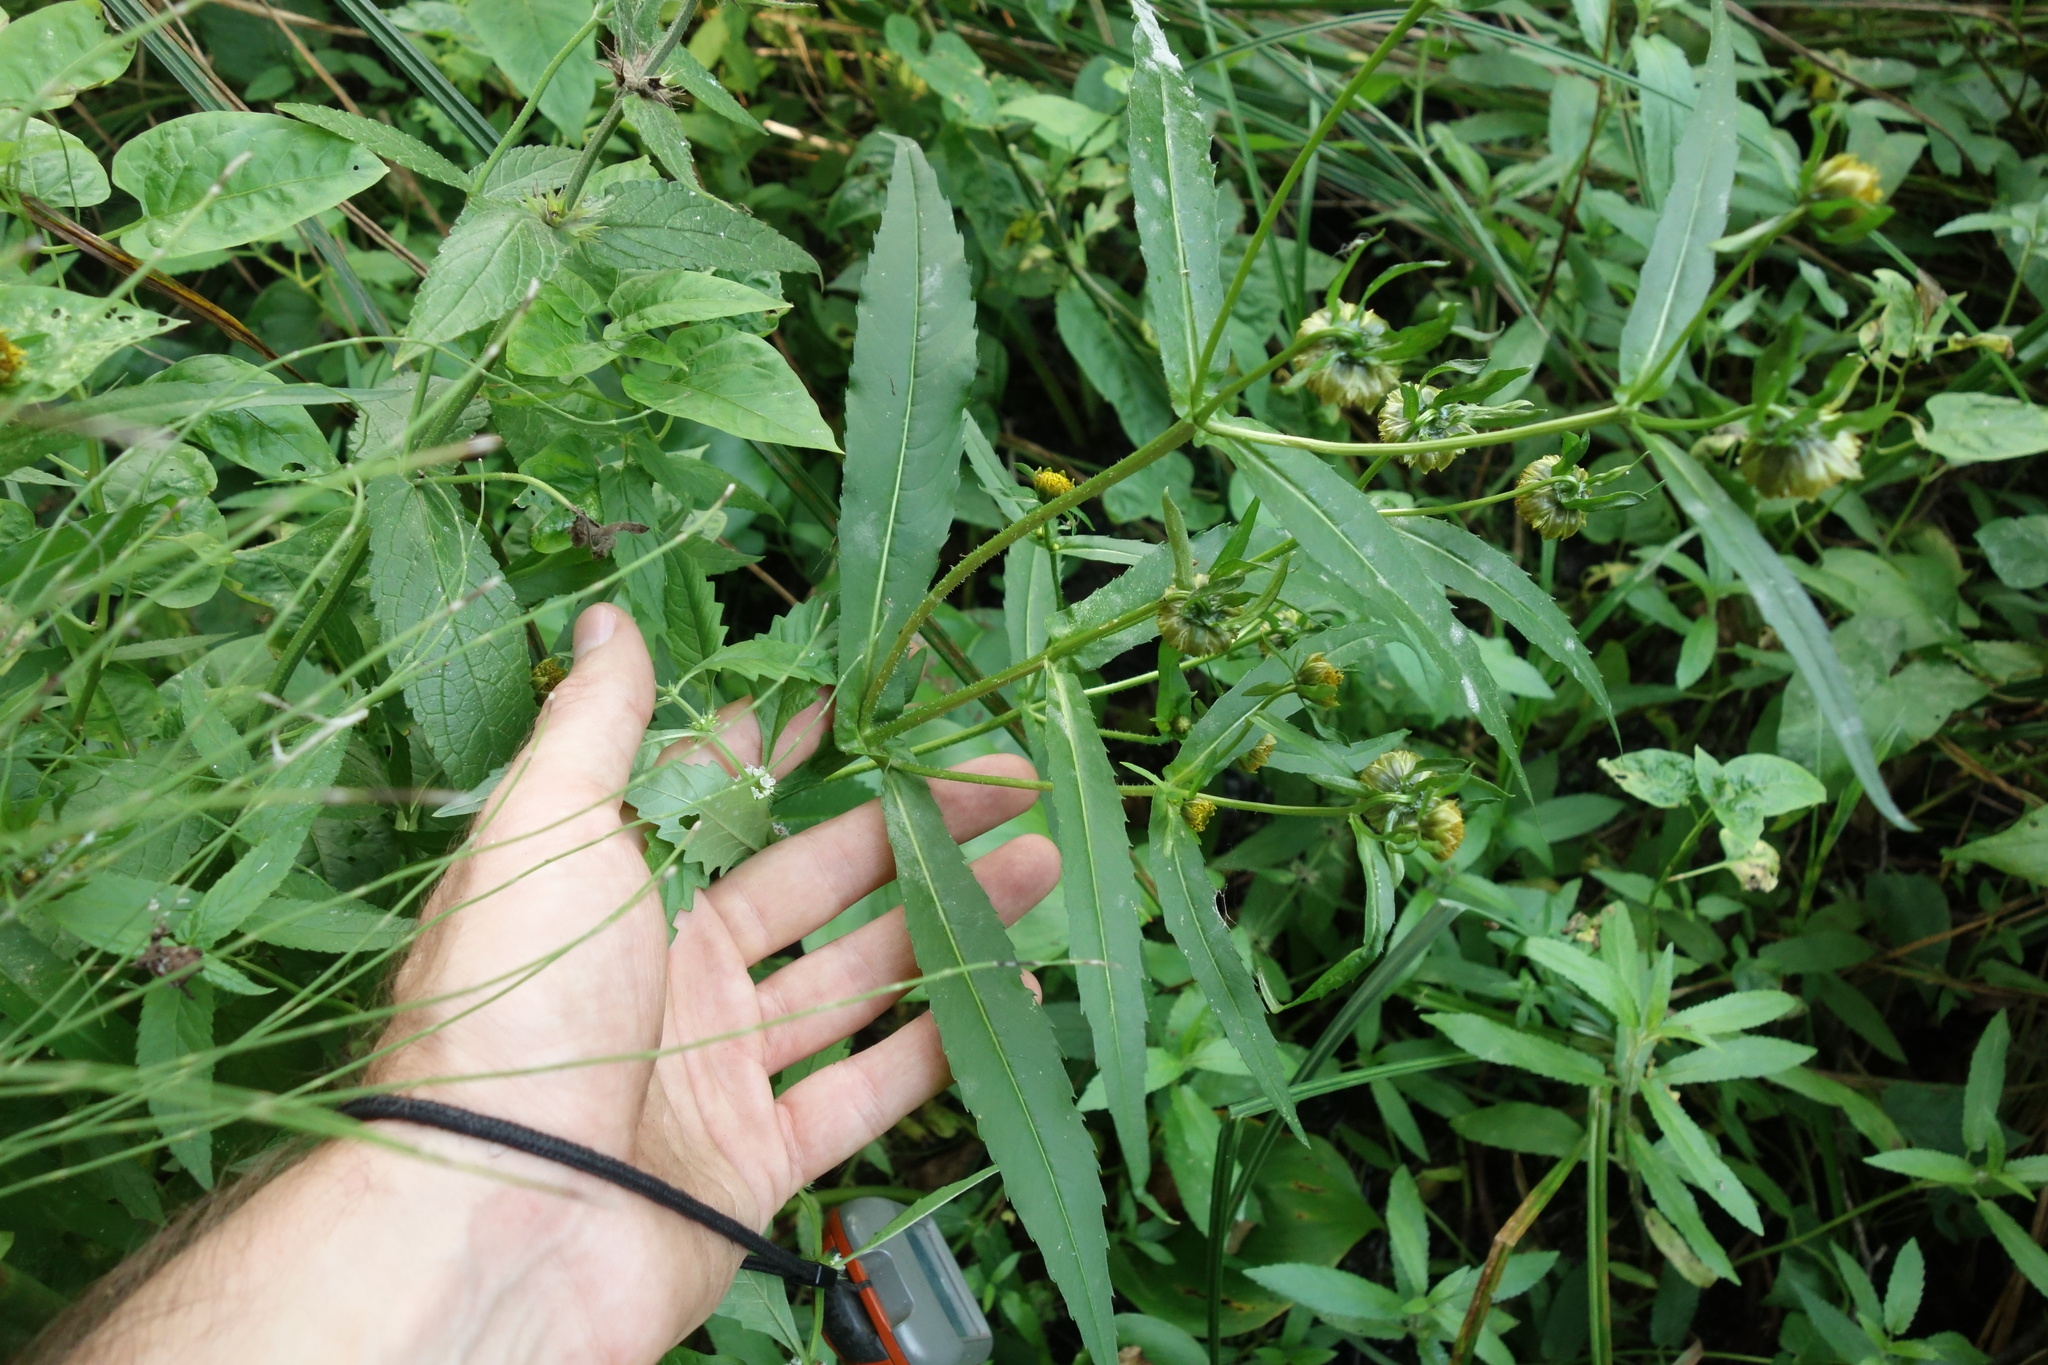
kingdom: Plantae
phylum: Tracheophyta
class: Magnoliopsida
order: Asterales
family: Asteraceae
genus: Bidens
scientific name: Bidens cernua
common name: Nodding bur-marigold
